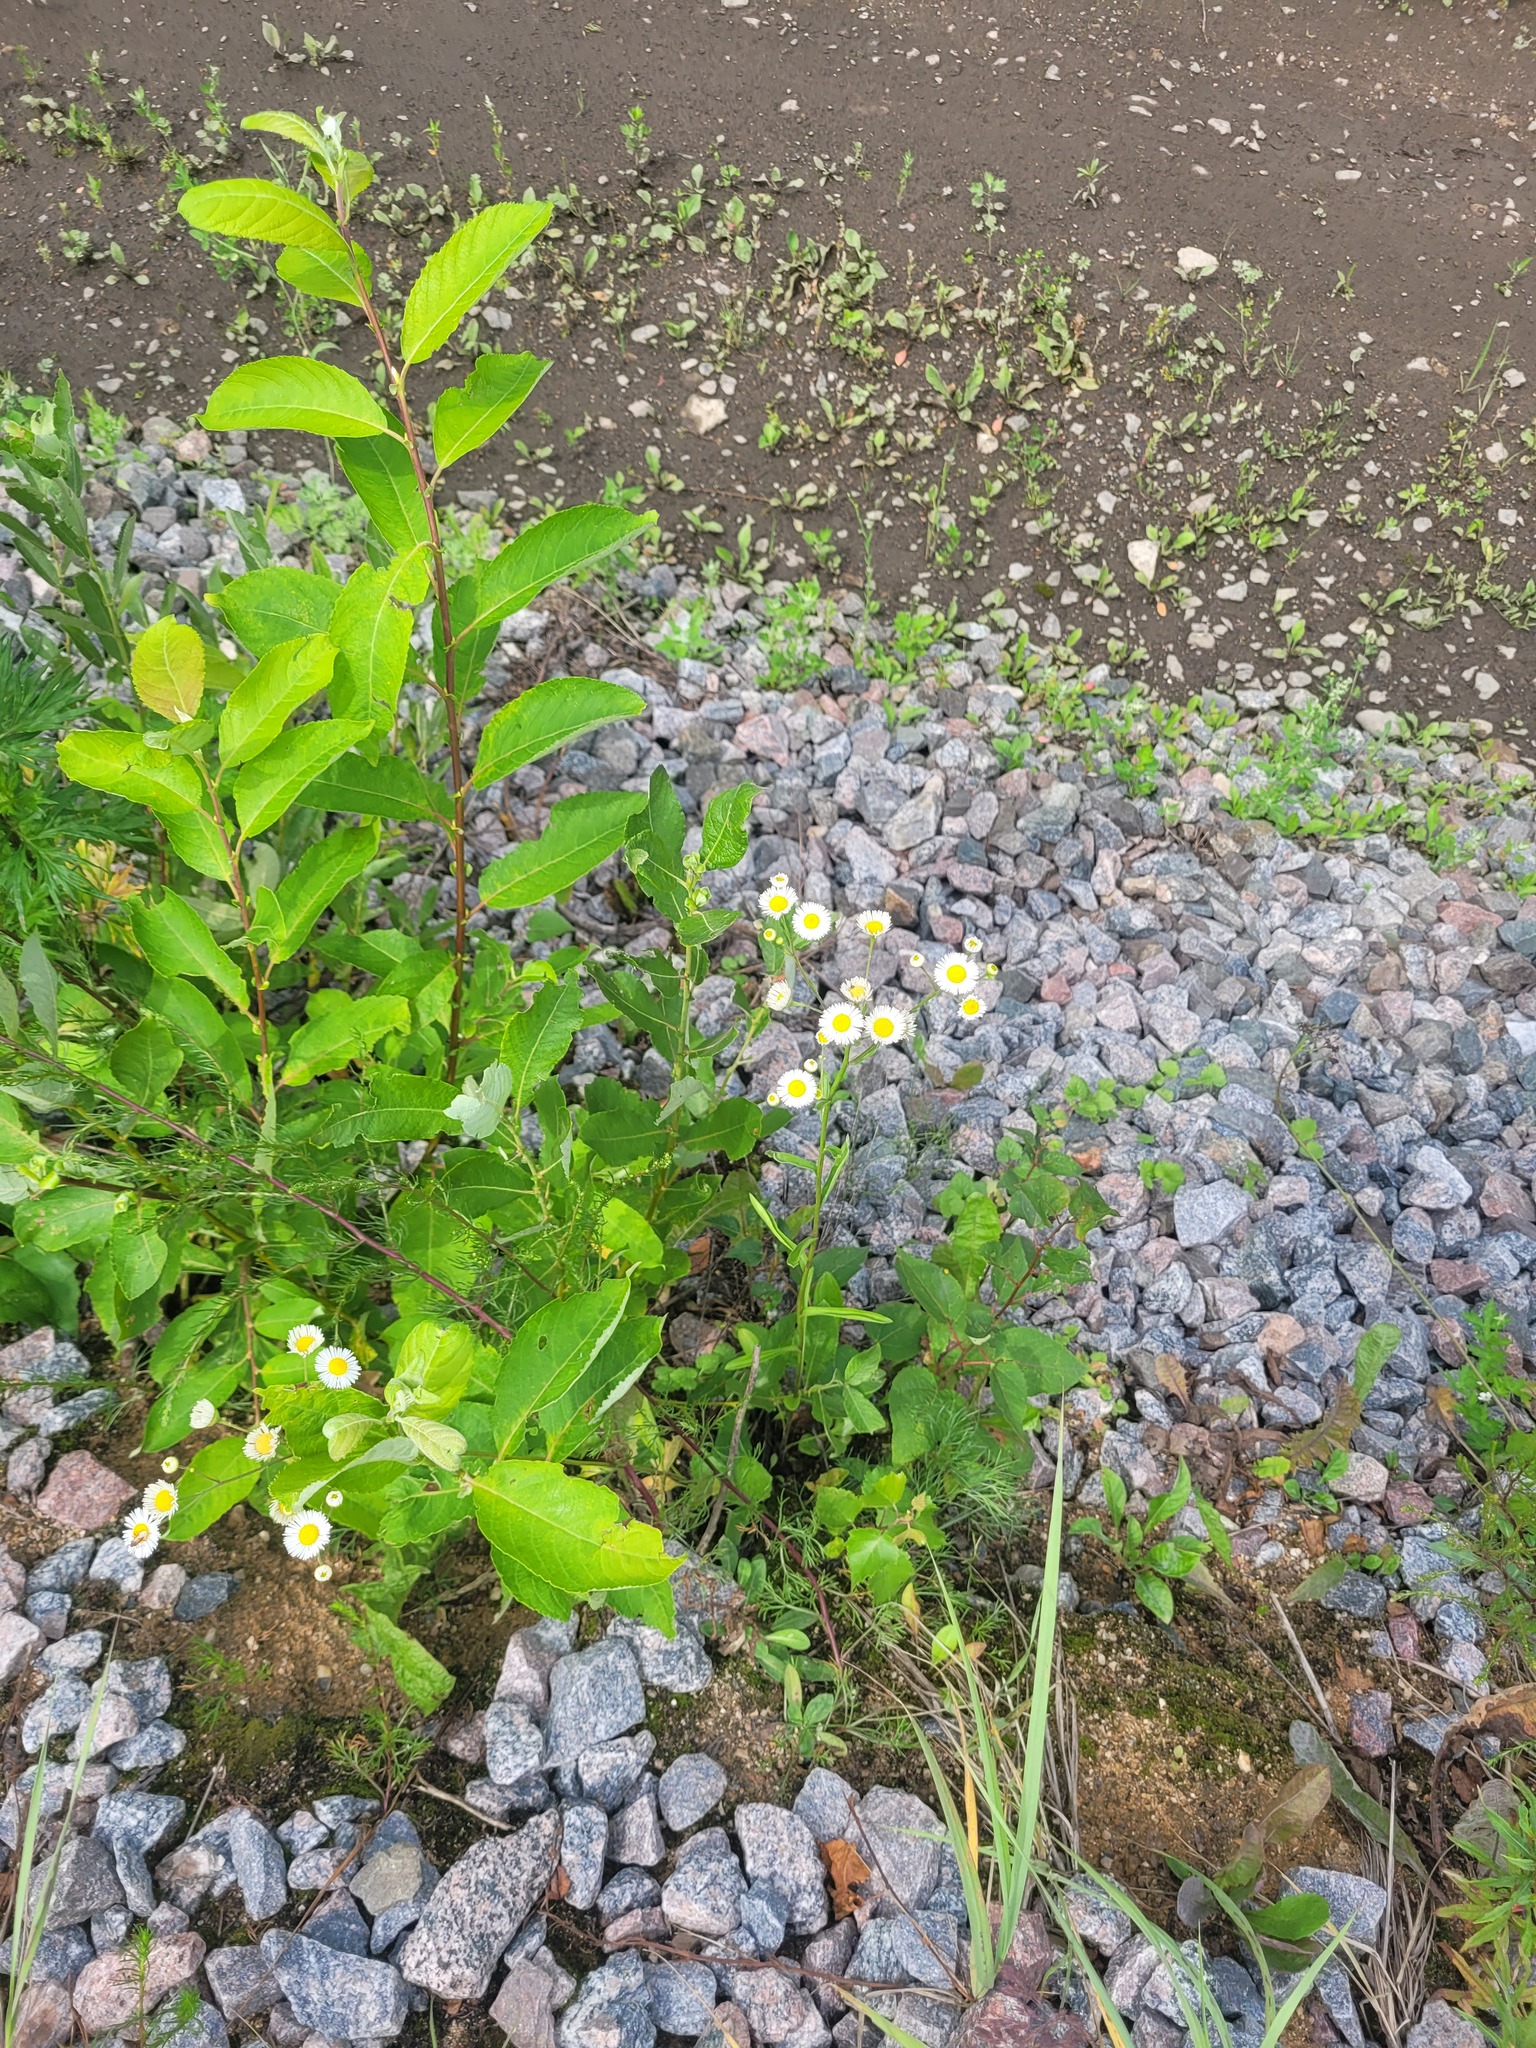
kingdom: Plantae
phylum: Tracheophyta
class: Magnoliopsida
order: Asterales
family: Asteraceae
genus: Erigeron
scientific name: Erigeron annuus
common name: Tall fleabane
